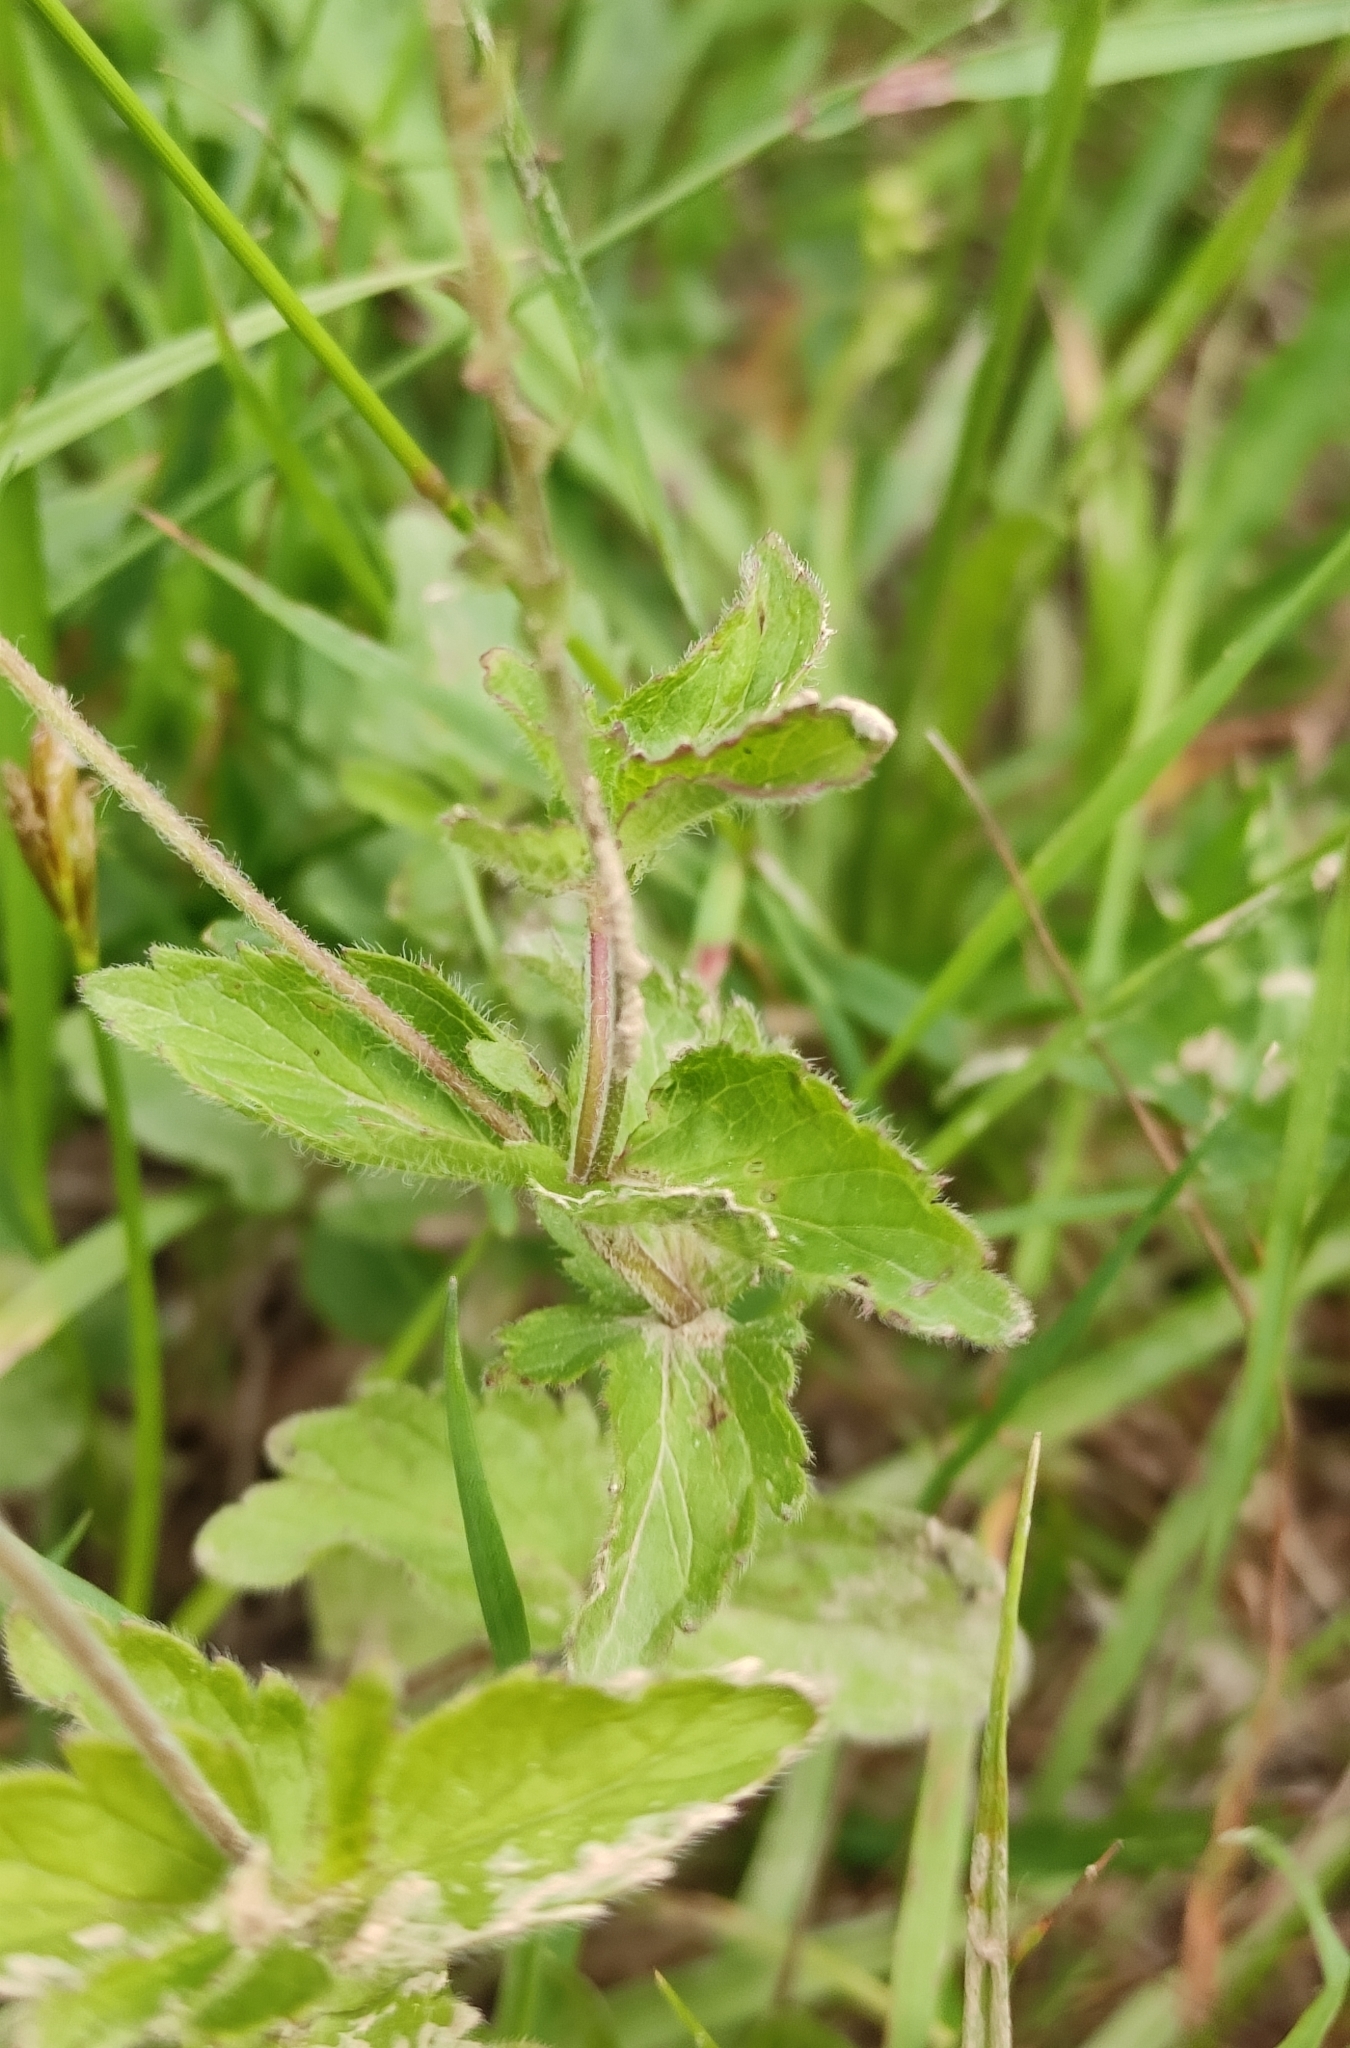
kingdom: Plantae
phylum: Tracheophyta
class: Magnoliopsida
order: Lamiales
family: Plantaginaceae
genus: Veronica
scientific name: Veronica chamaedrys
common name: Germander speedwell
